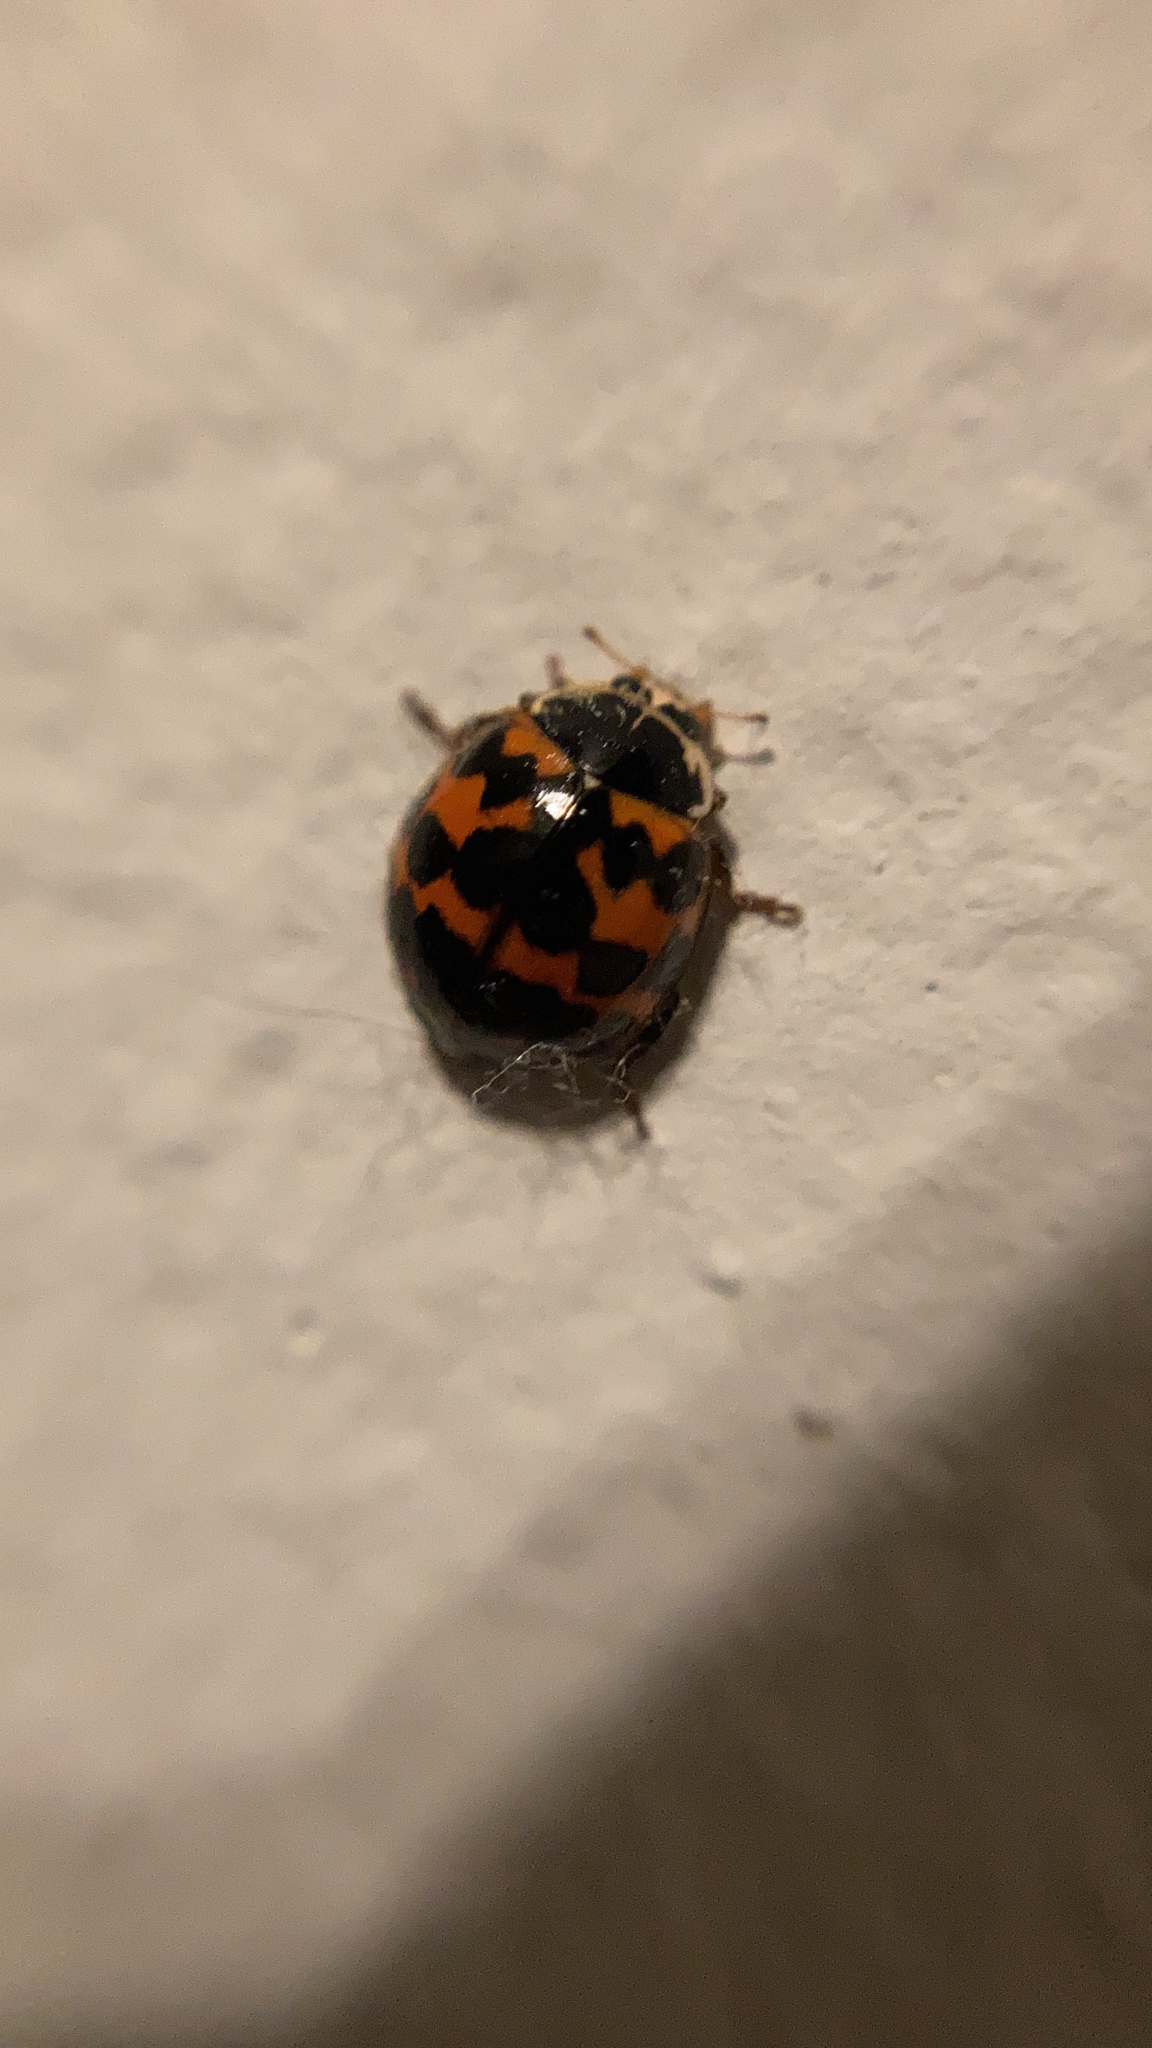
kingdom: Animalia
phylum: Arthropoda
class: Insecta
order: Coleoptera
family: Coccinellidae
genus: Harmonia
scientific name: Harmonia axyridis
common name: Harlequin ladybird
